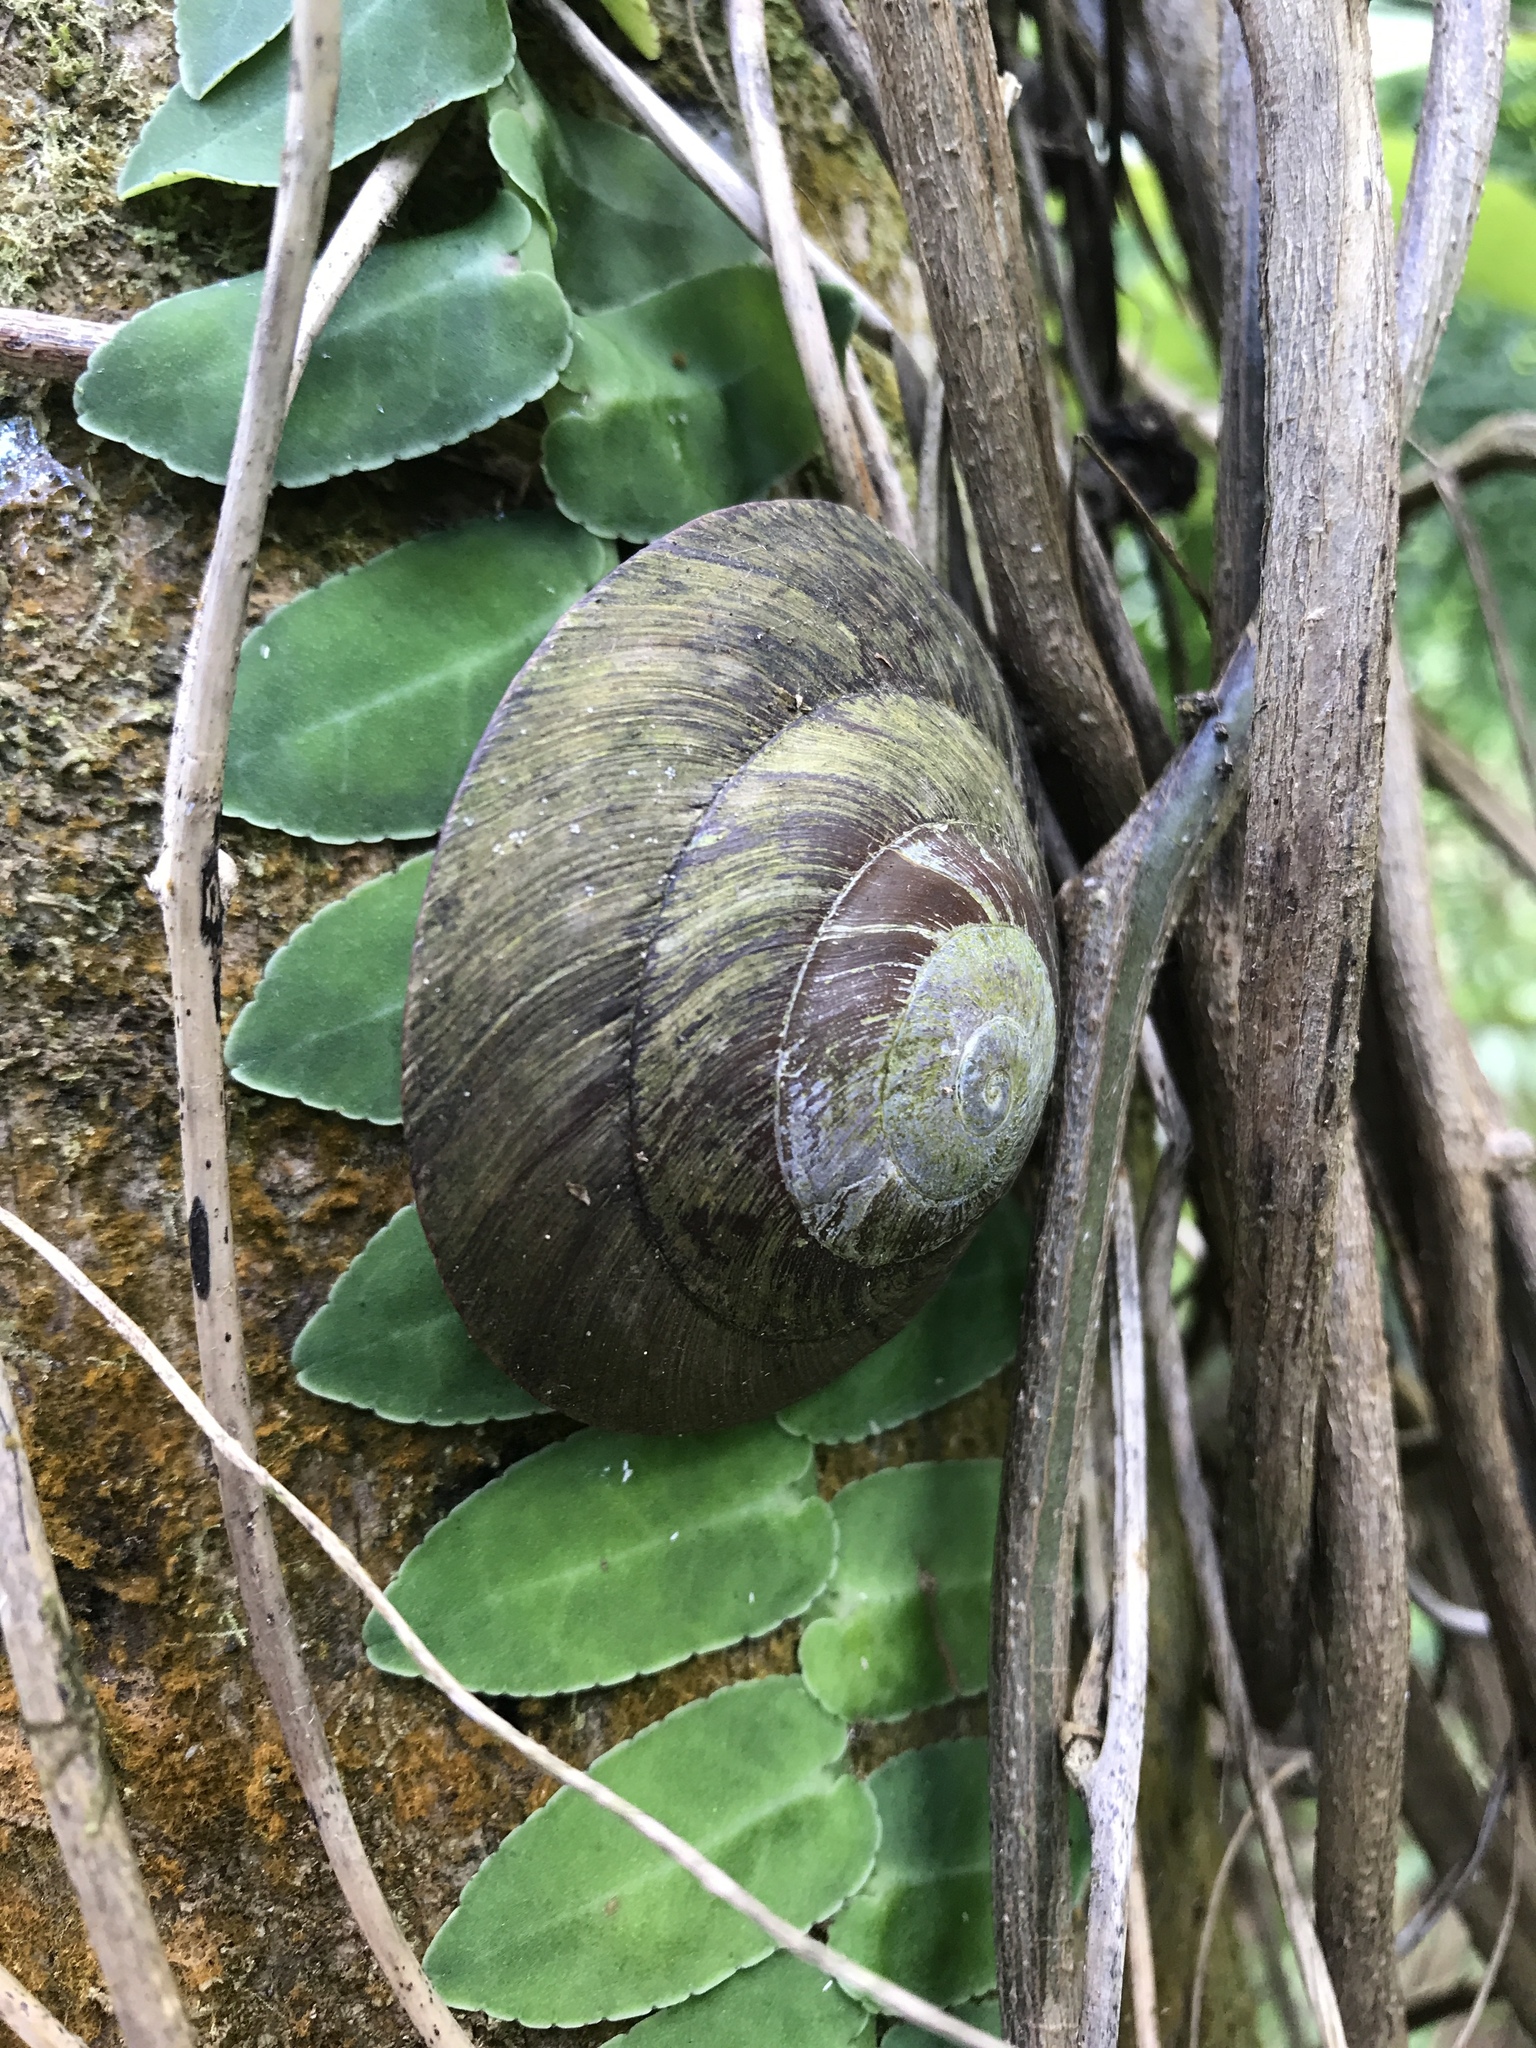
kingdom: Animalia
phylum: Mollusca
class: Gastropoda
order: Stylommatophora
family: Solaropsidae
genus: Caracolus
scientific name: Caracolus carocolla
